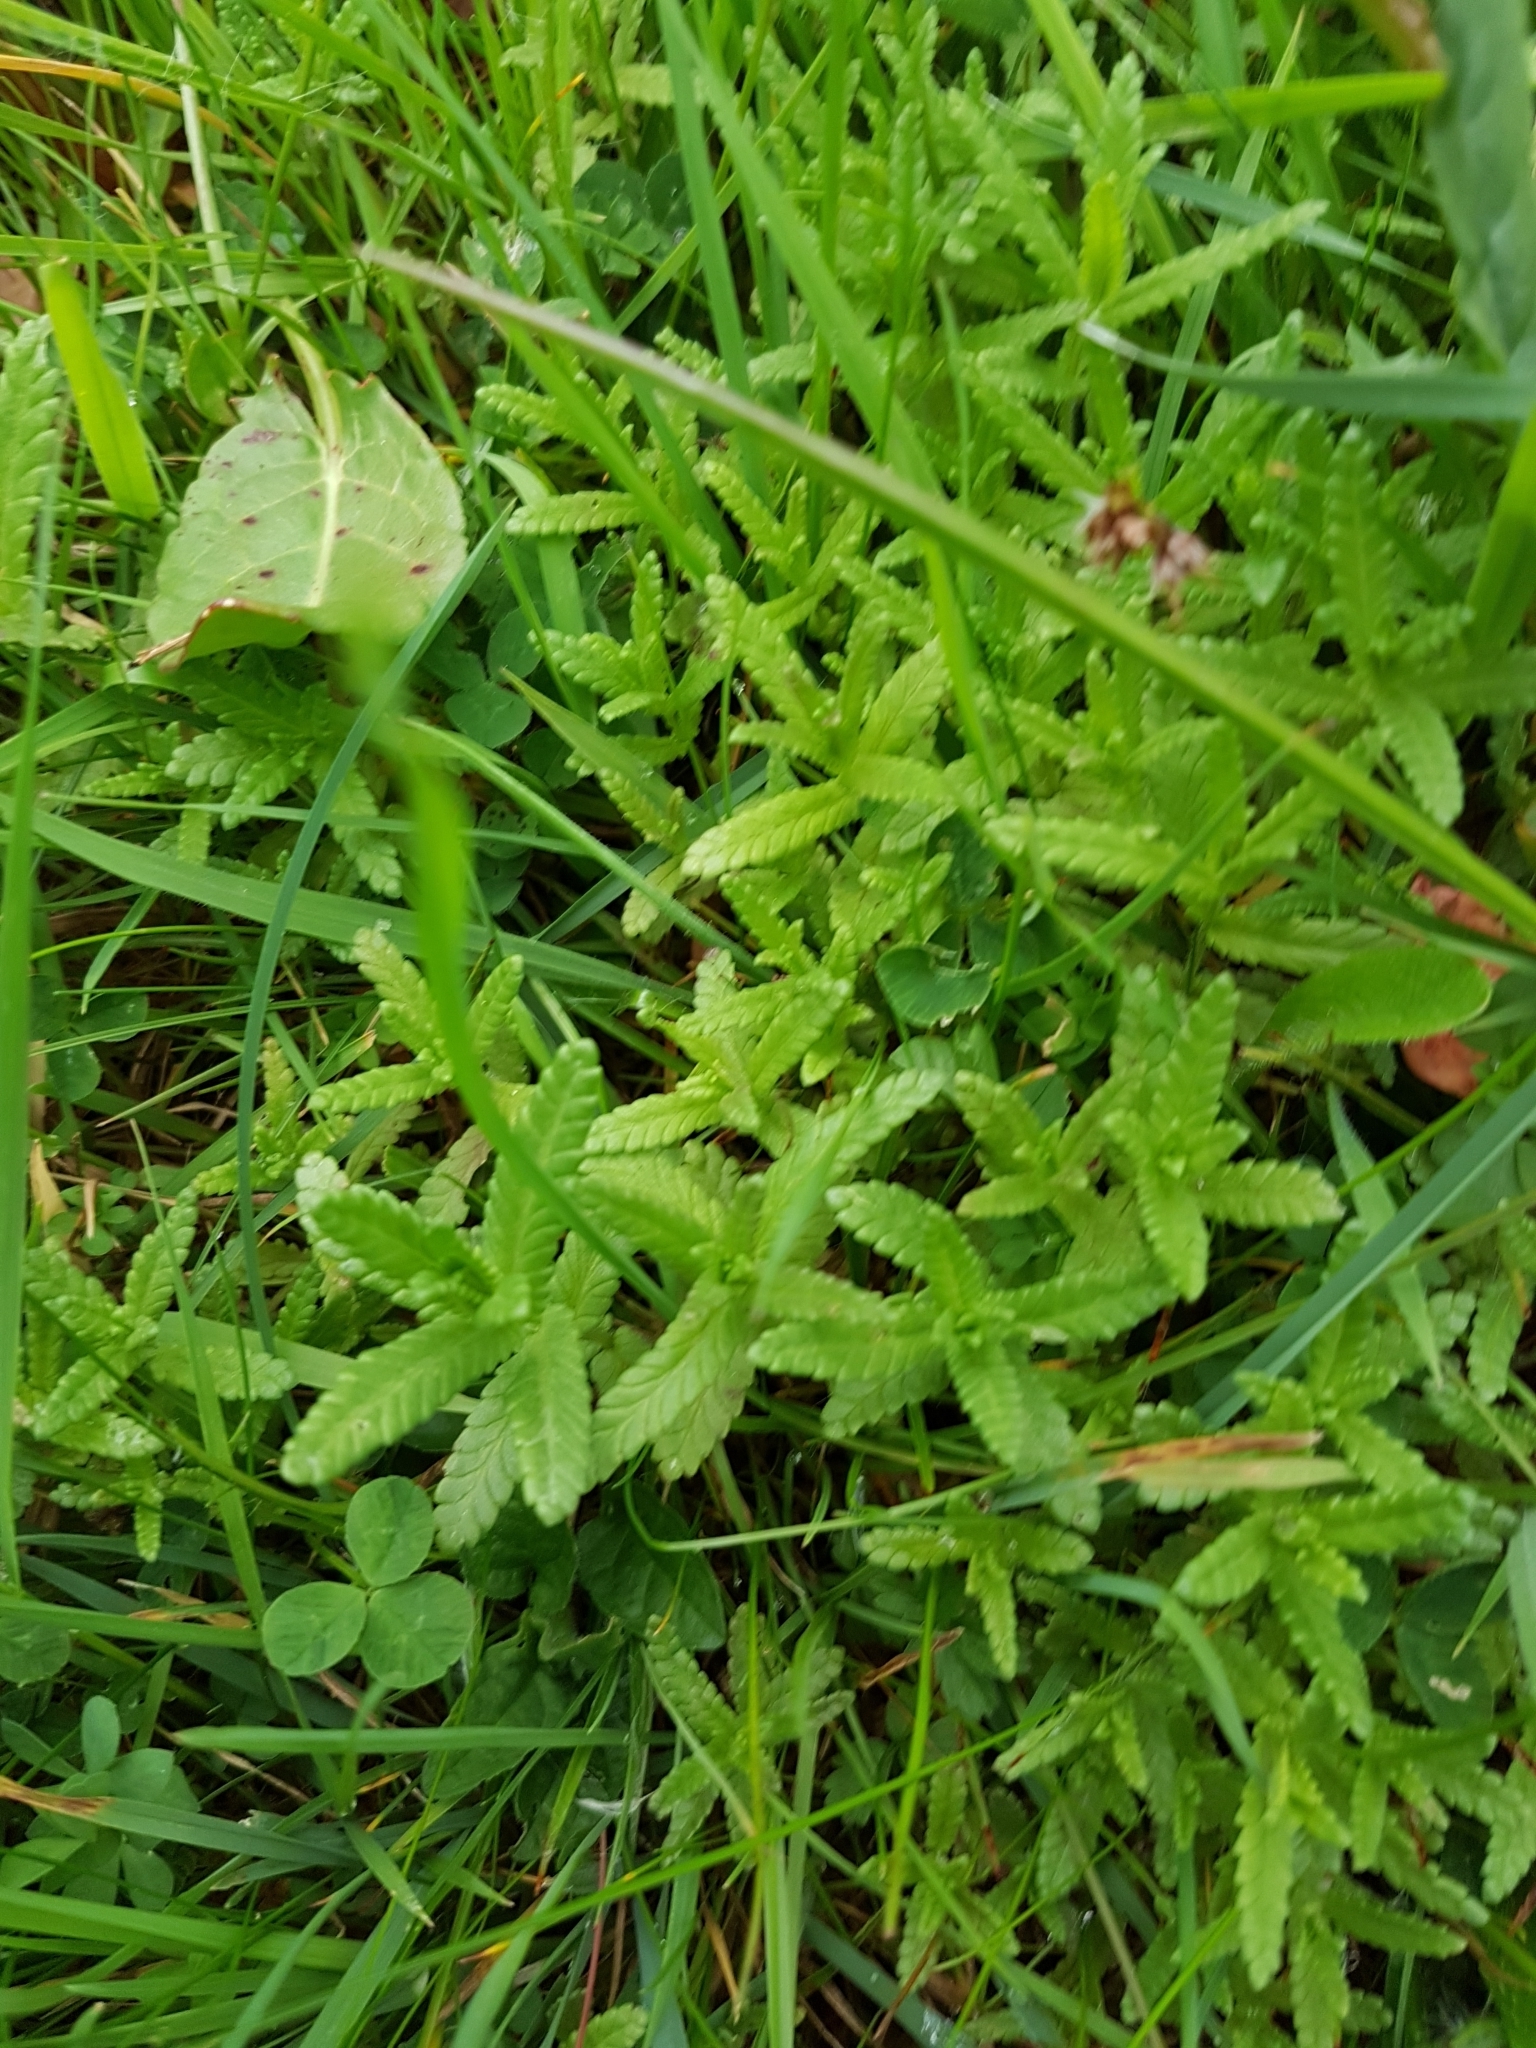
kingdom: Plantae
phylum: Tracheophyta
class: Magnoliopsida
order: Lamiales
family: Orobanchaceae
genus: Rhinanthus
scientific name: Rhinanthus minor
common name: Yellow-rattle
